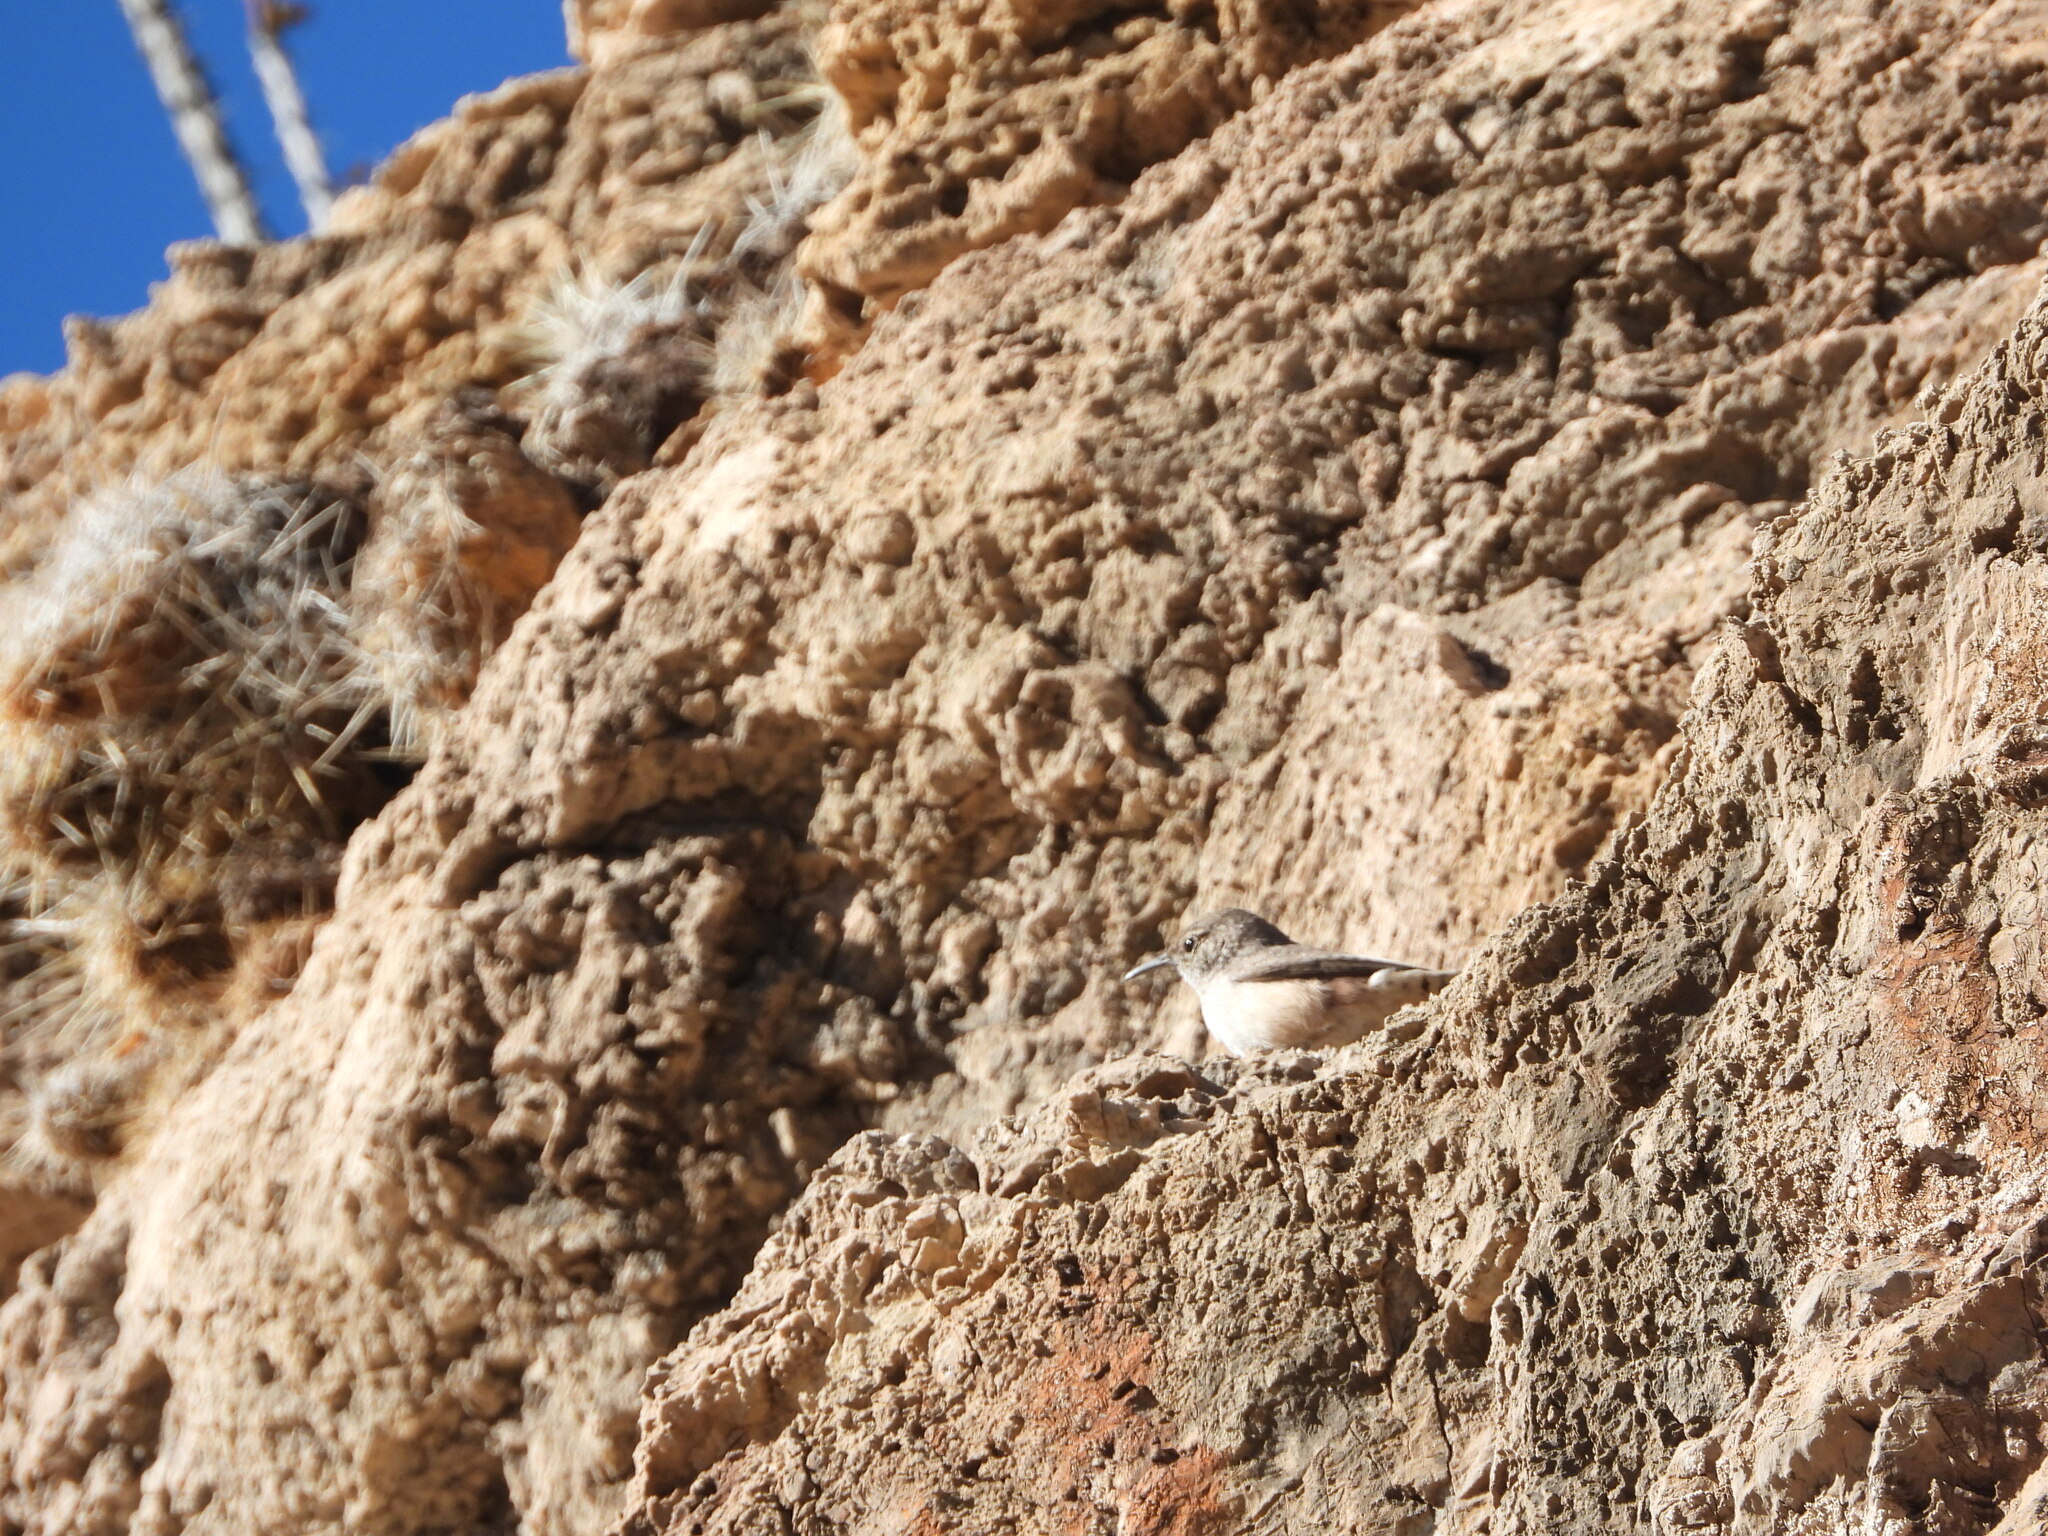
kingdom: Animalia
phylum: Chordata
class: Aves
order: Passeriformes
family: Troglodytidae
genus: Salpinctes
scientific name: Salpinctes obsoletus
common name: Rock wren
